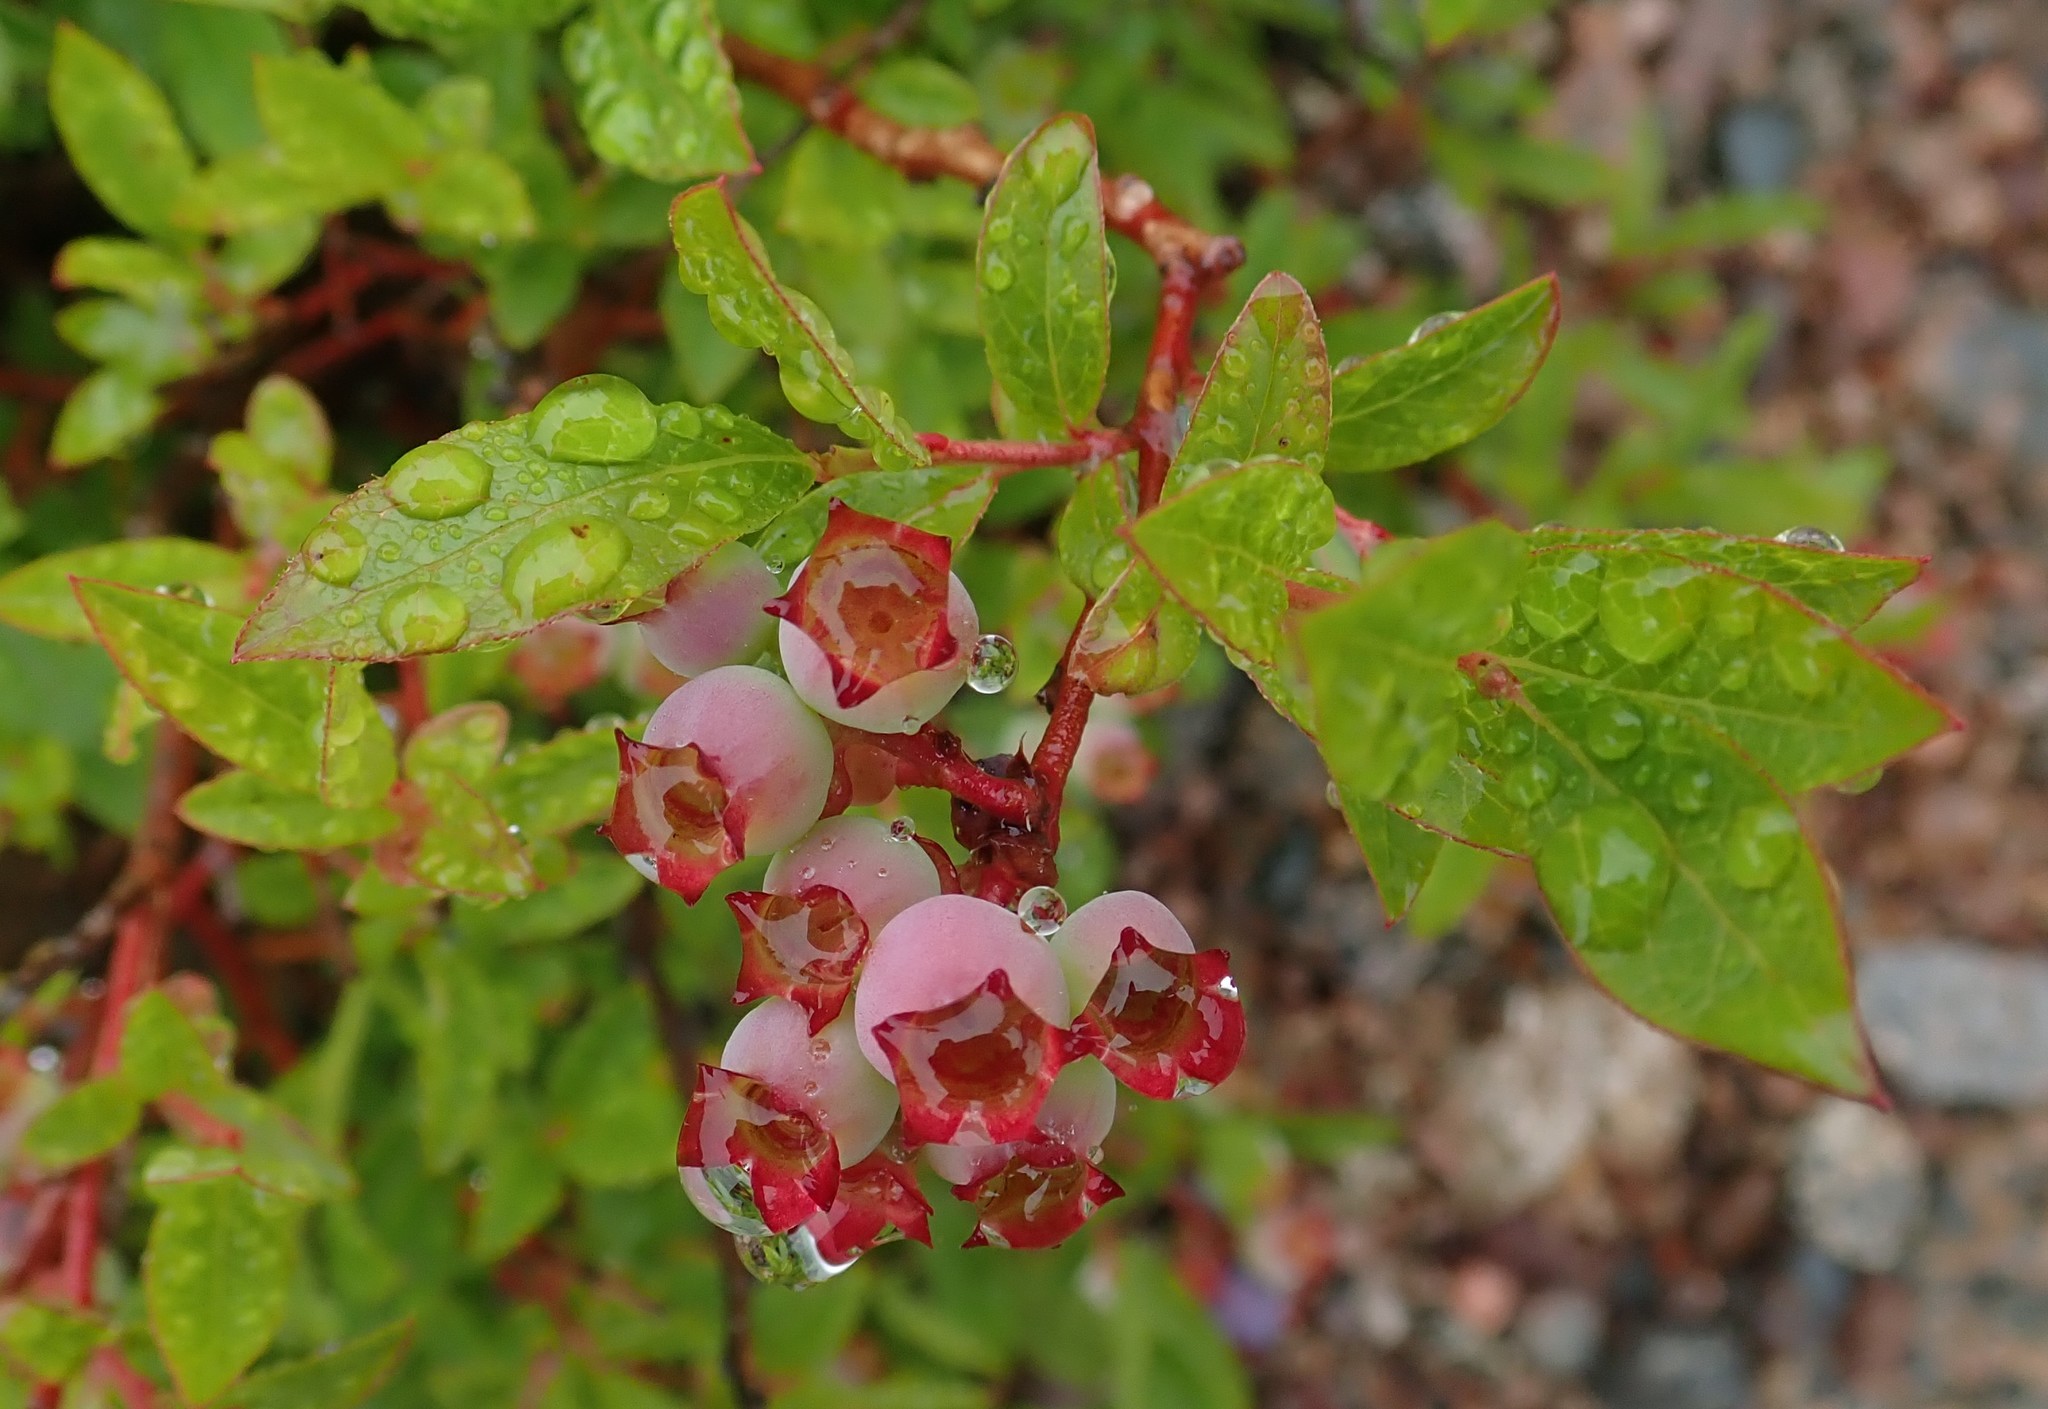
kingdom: Plantae
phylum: Tracheophyta
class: Magnoliopsida
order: Ericales
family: Ericaceae
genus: Vaccinium
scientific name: Vaccinium angustifolium
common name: Early lowbush blueberry
